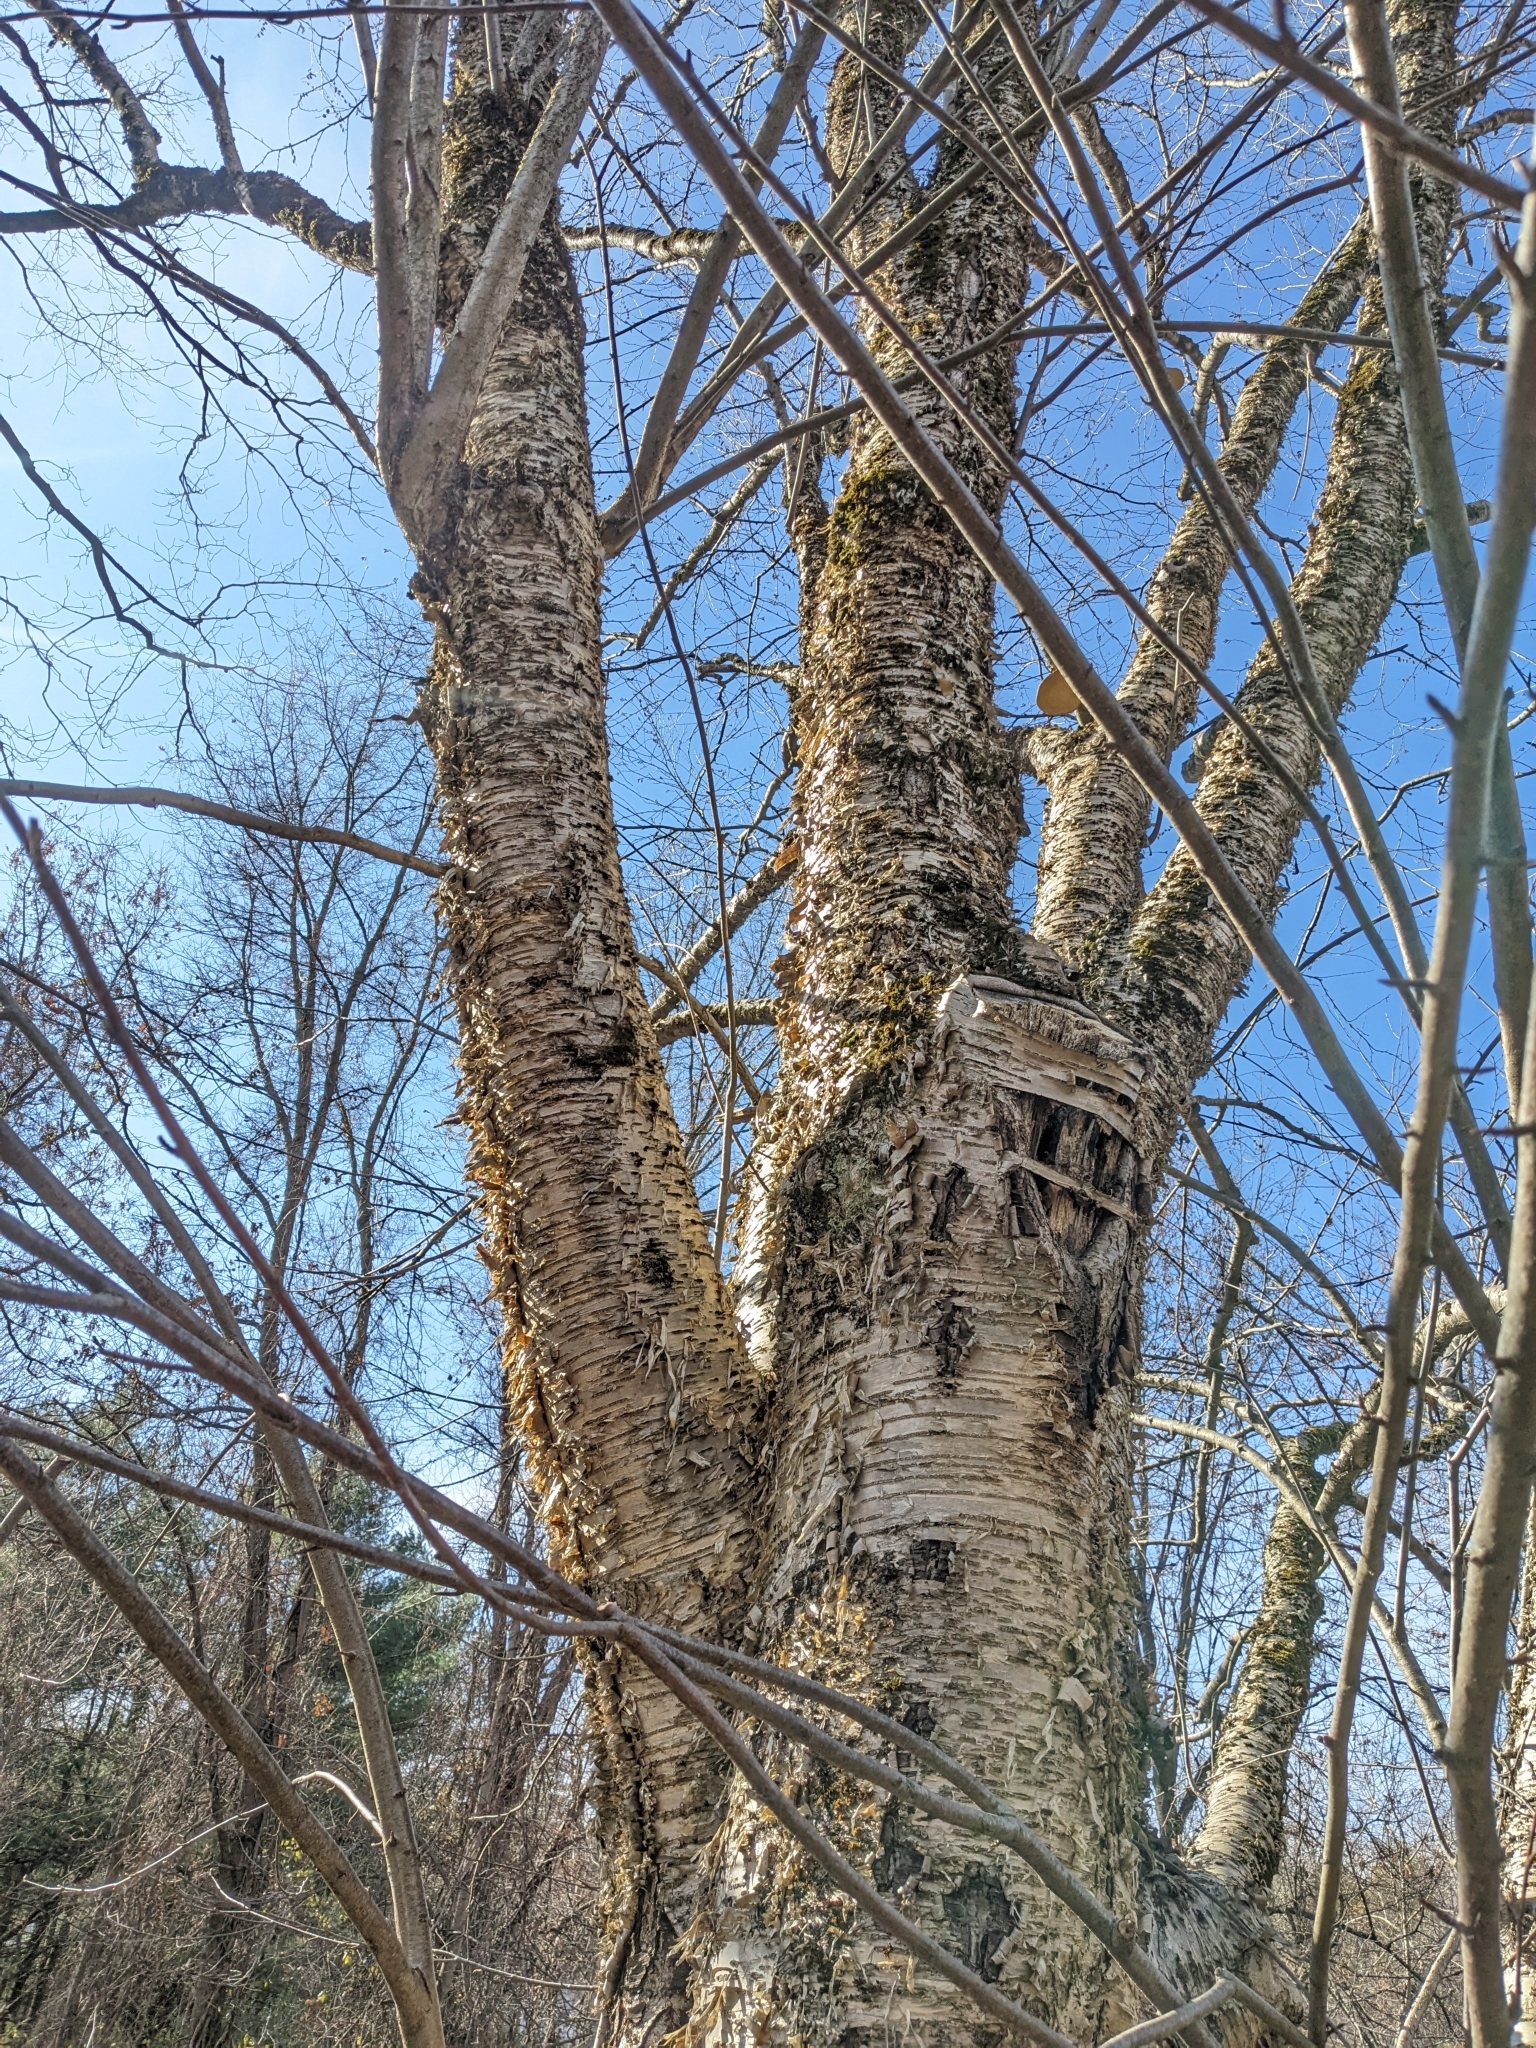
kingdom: Plantae
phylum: Tracheophyta
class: Magnoliopsida
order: Fagales
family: Betulaceae
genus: Betula
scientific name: Betula alleghaniensis
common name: Yellow birch
